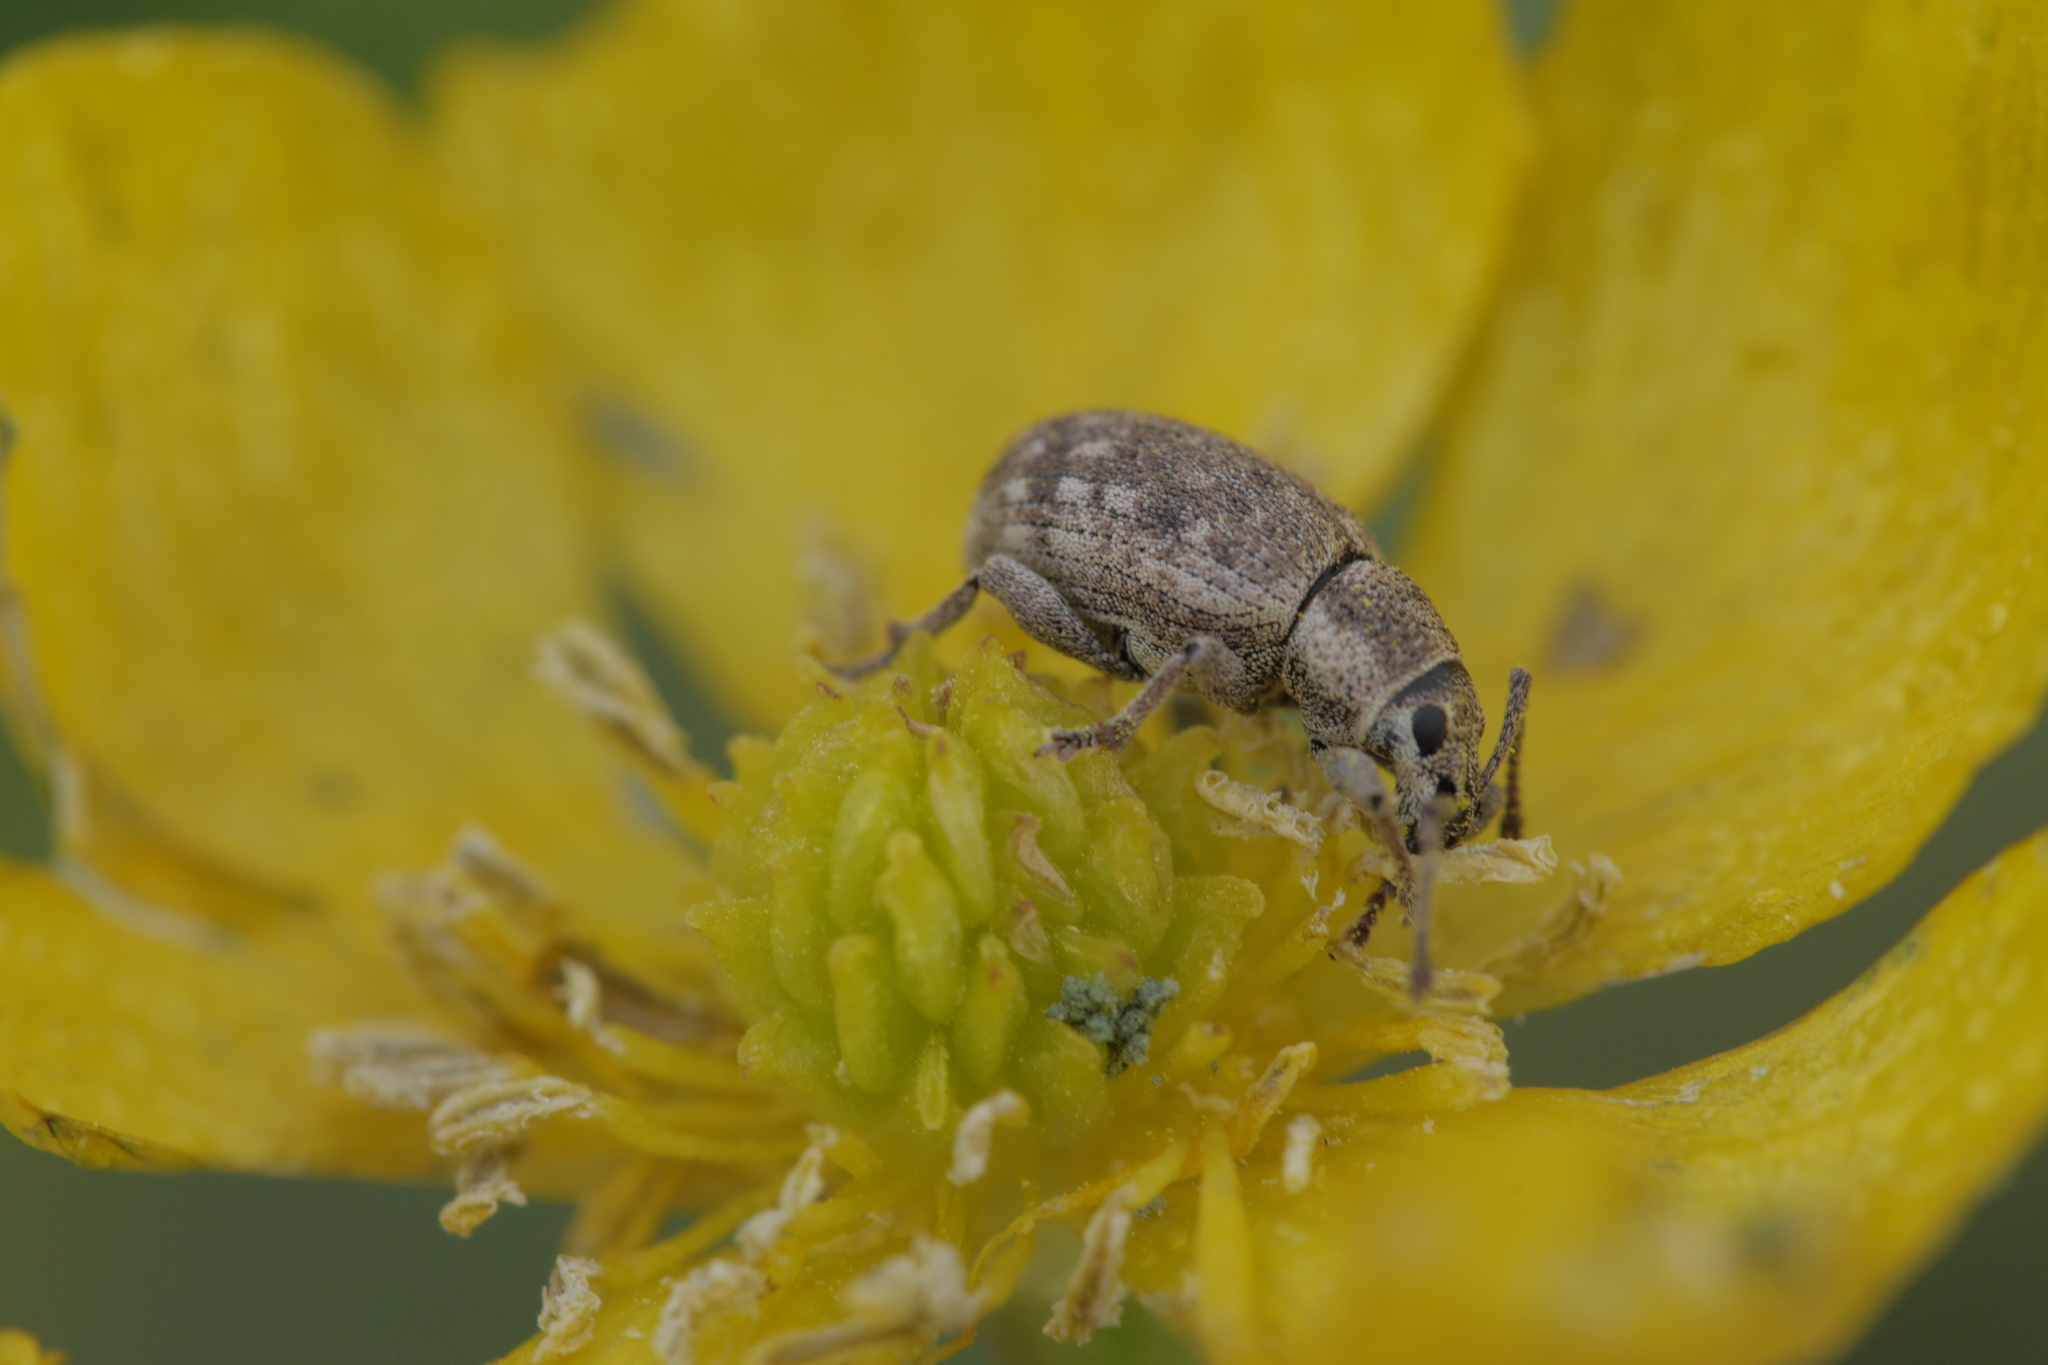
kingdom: Animalia
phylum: Arthropoda
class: Insecta
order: Coleoptera
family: Curculionidae
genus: Peritelus
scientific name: Peritelus sphaeroides
